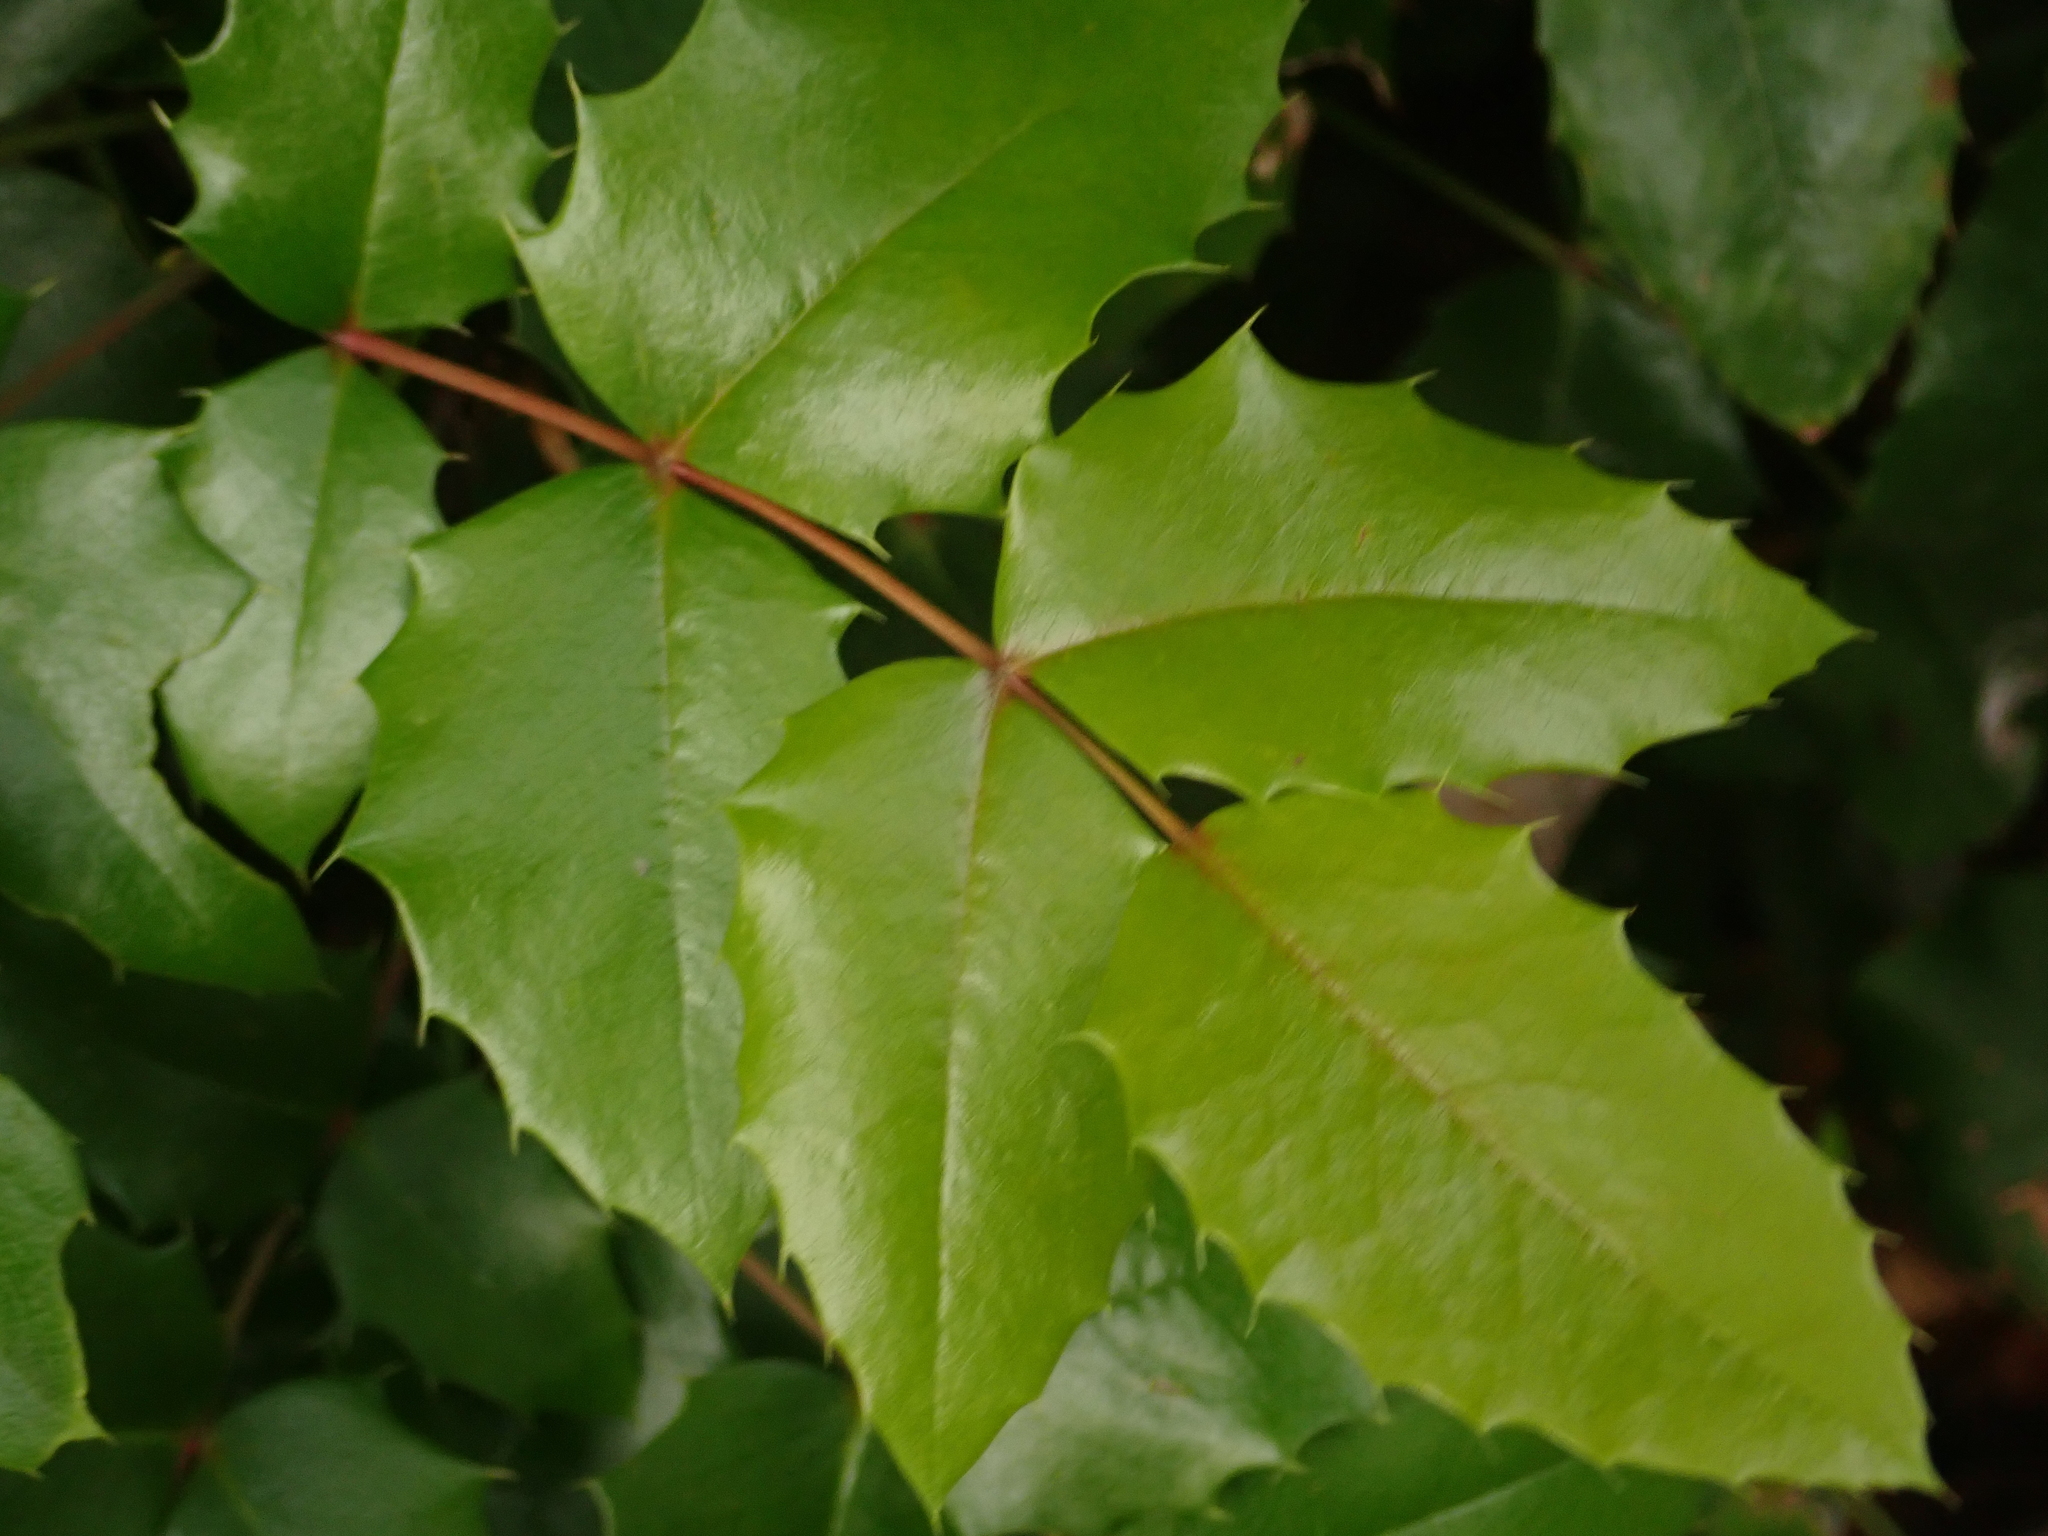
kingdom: Plantae
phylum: Tracheophyta
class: Magnoliopsida
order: Ranunculales
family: Berberidaceae
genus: Mahonia
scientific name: Mahonia aquifolium
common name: Oregon-grape
